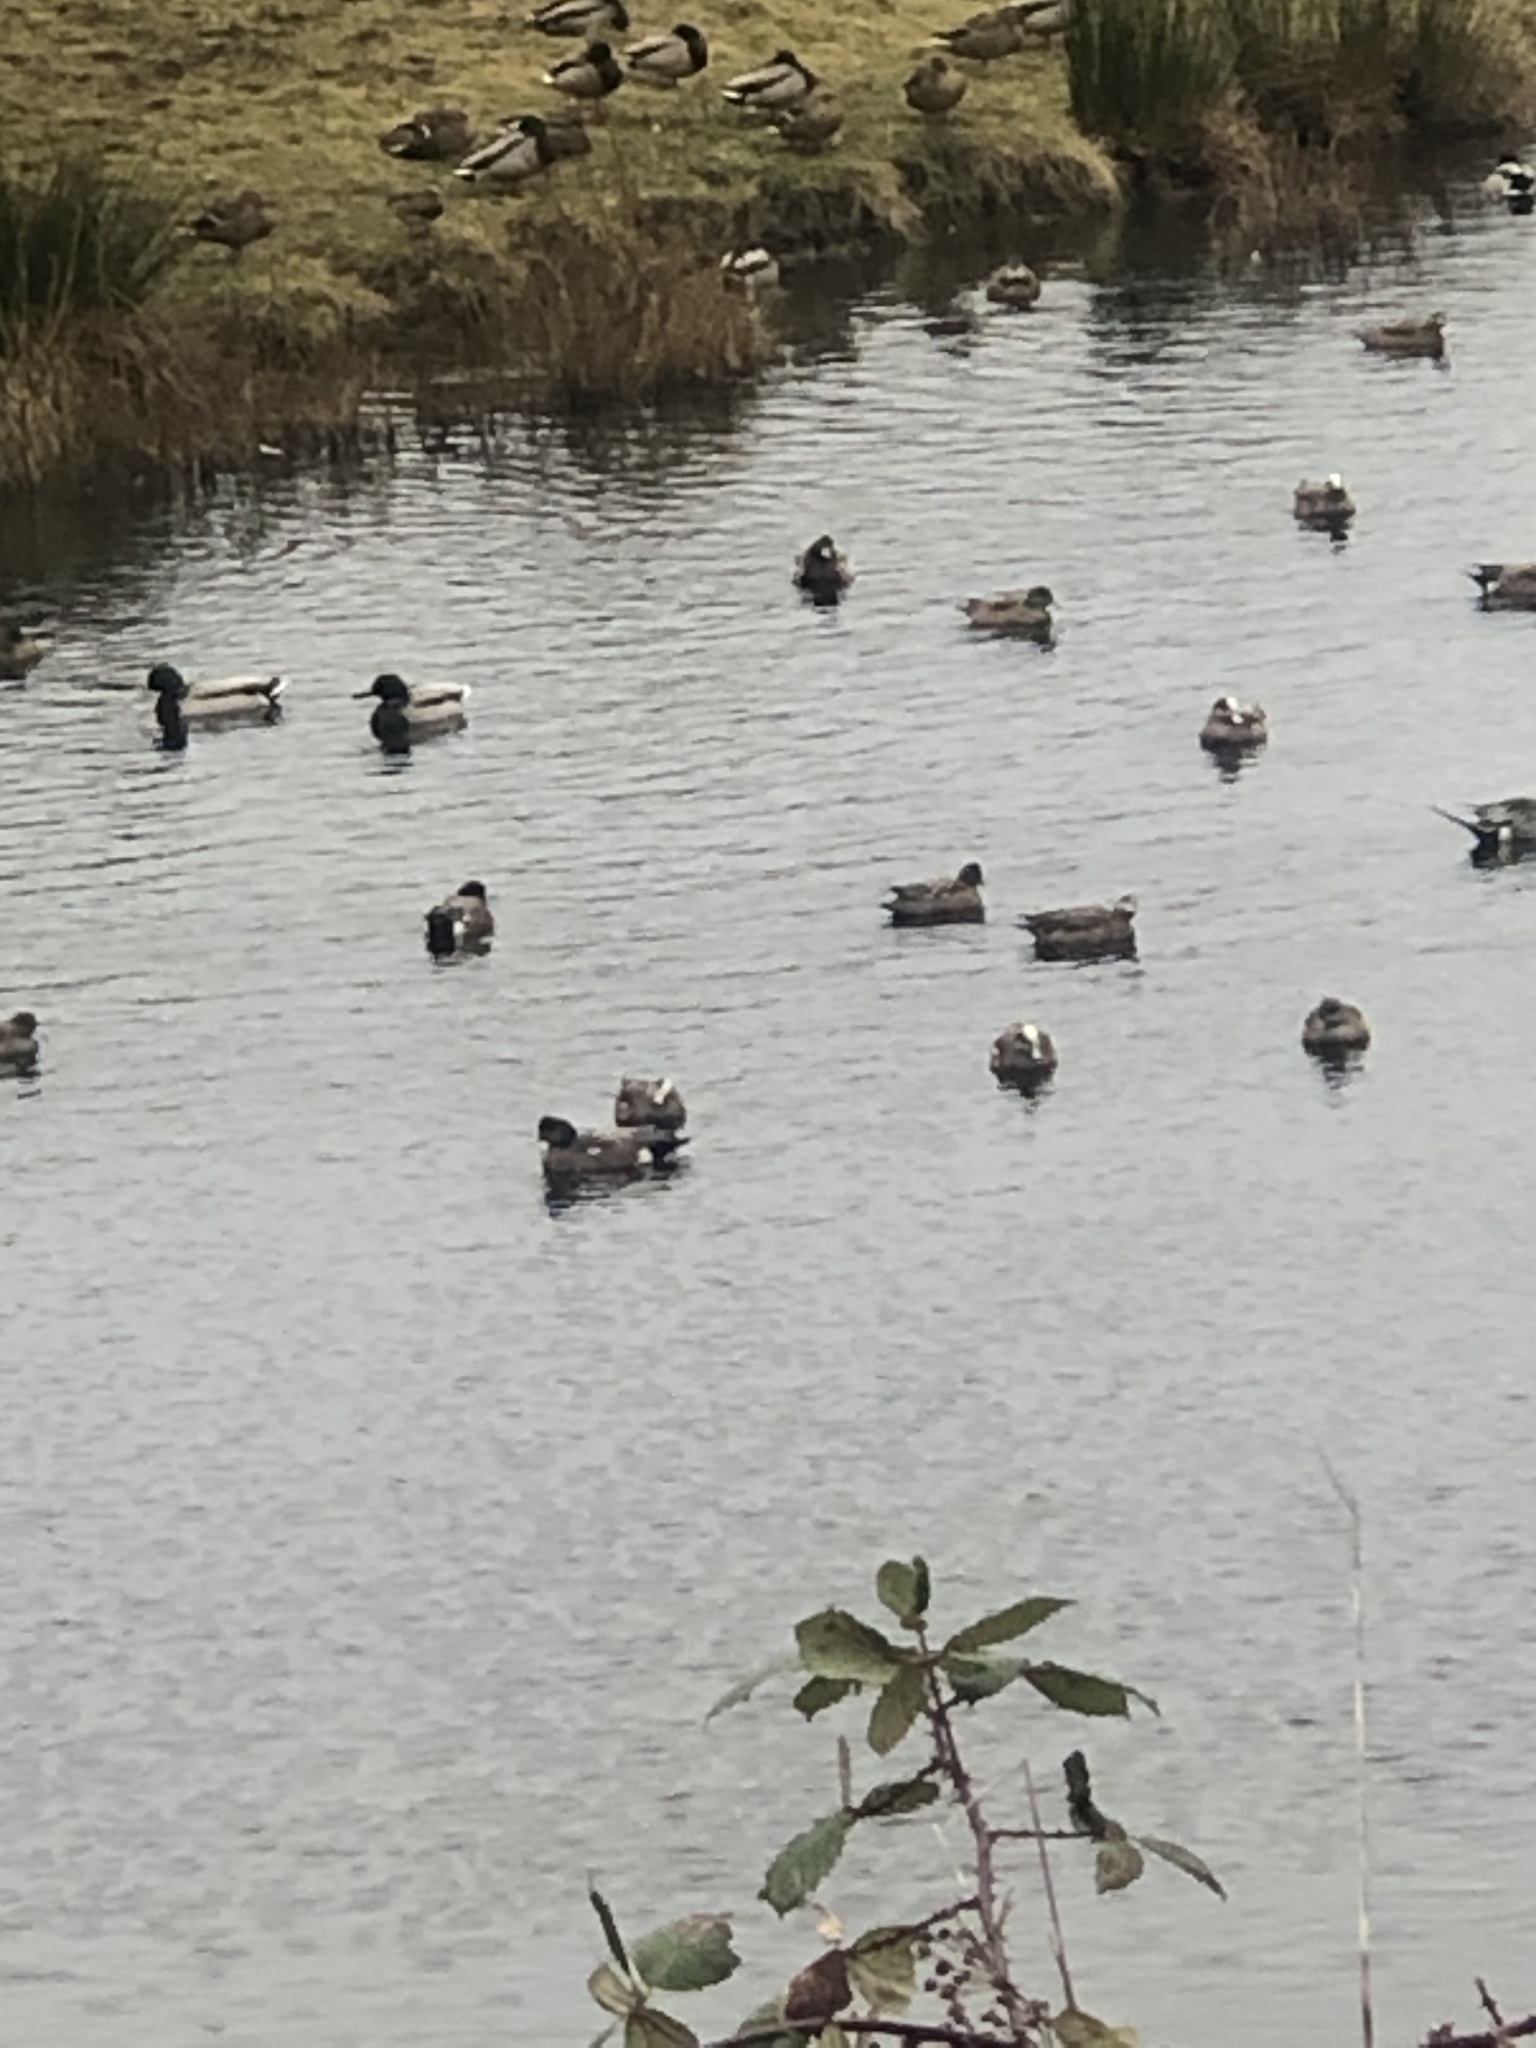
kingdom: Animalia
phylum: Chordata
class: Aves
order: Anseriformes
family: Anatidae
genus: Anas
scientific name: Anas platyrhynchos
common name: Mallard
